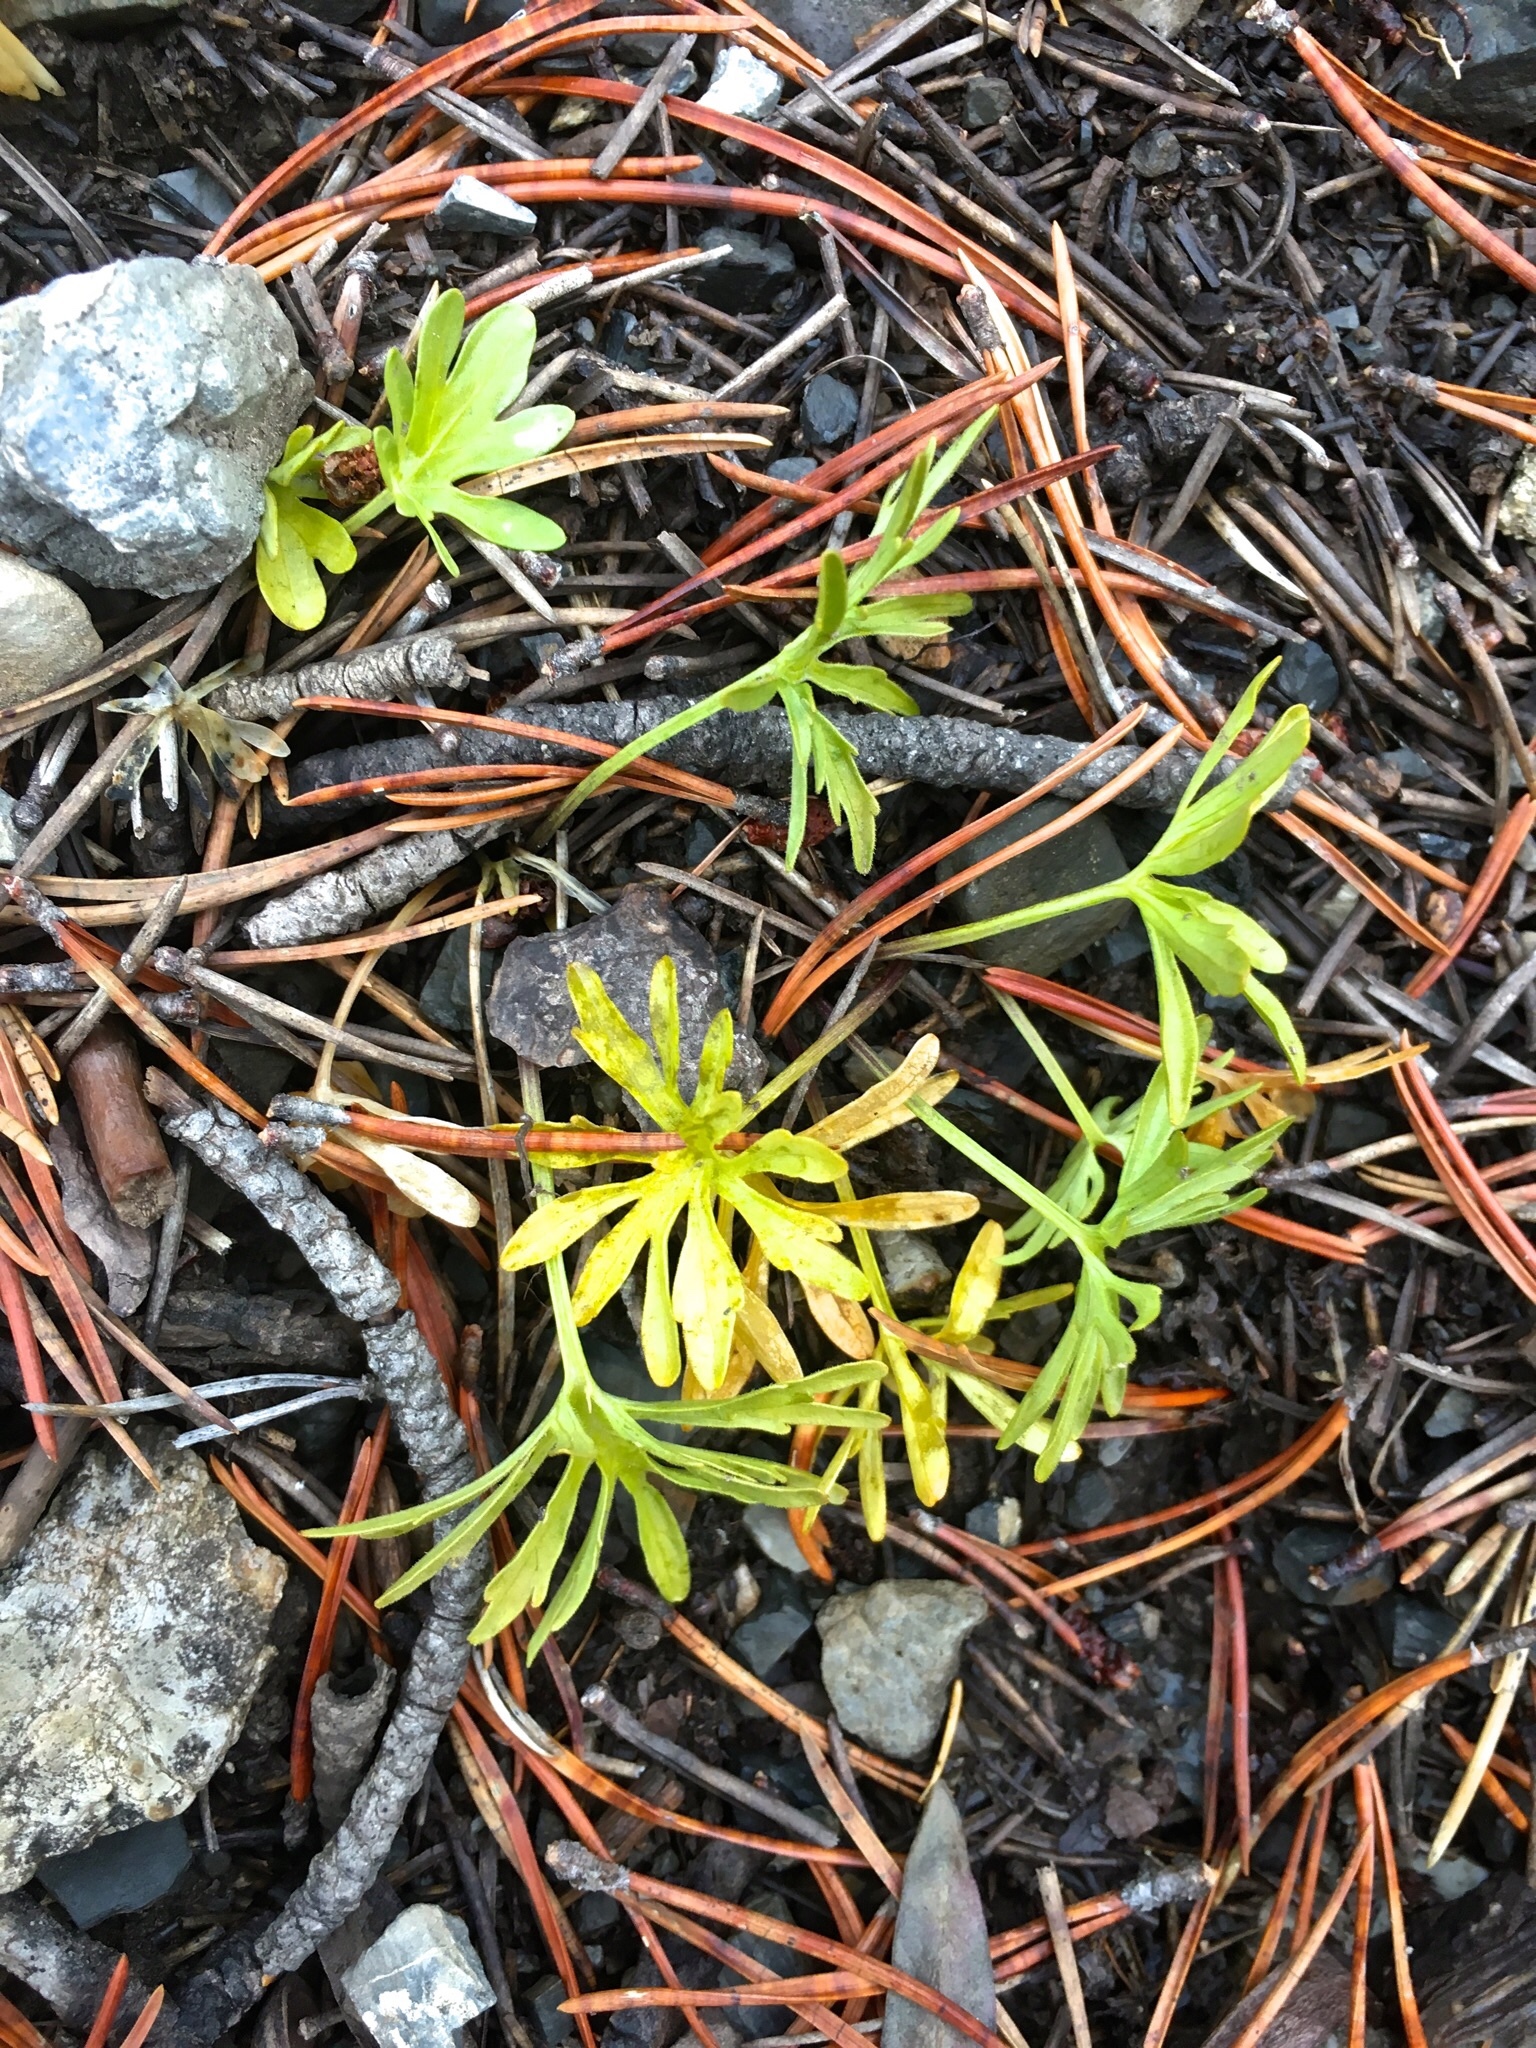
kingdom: Plantae
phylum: Tracheophyta
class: Magnoliopsida
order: Malpighiales
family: Violaceae
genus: Viola
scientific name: Viola pinnata
